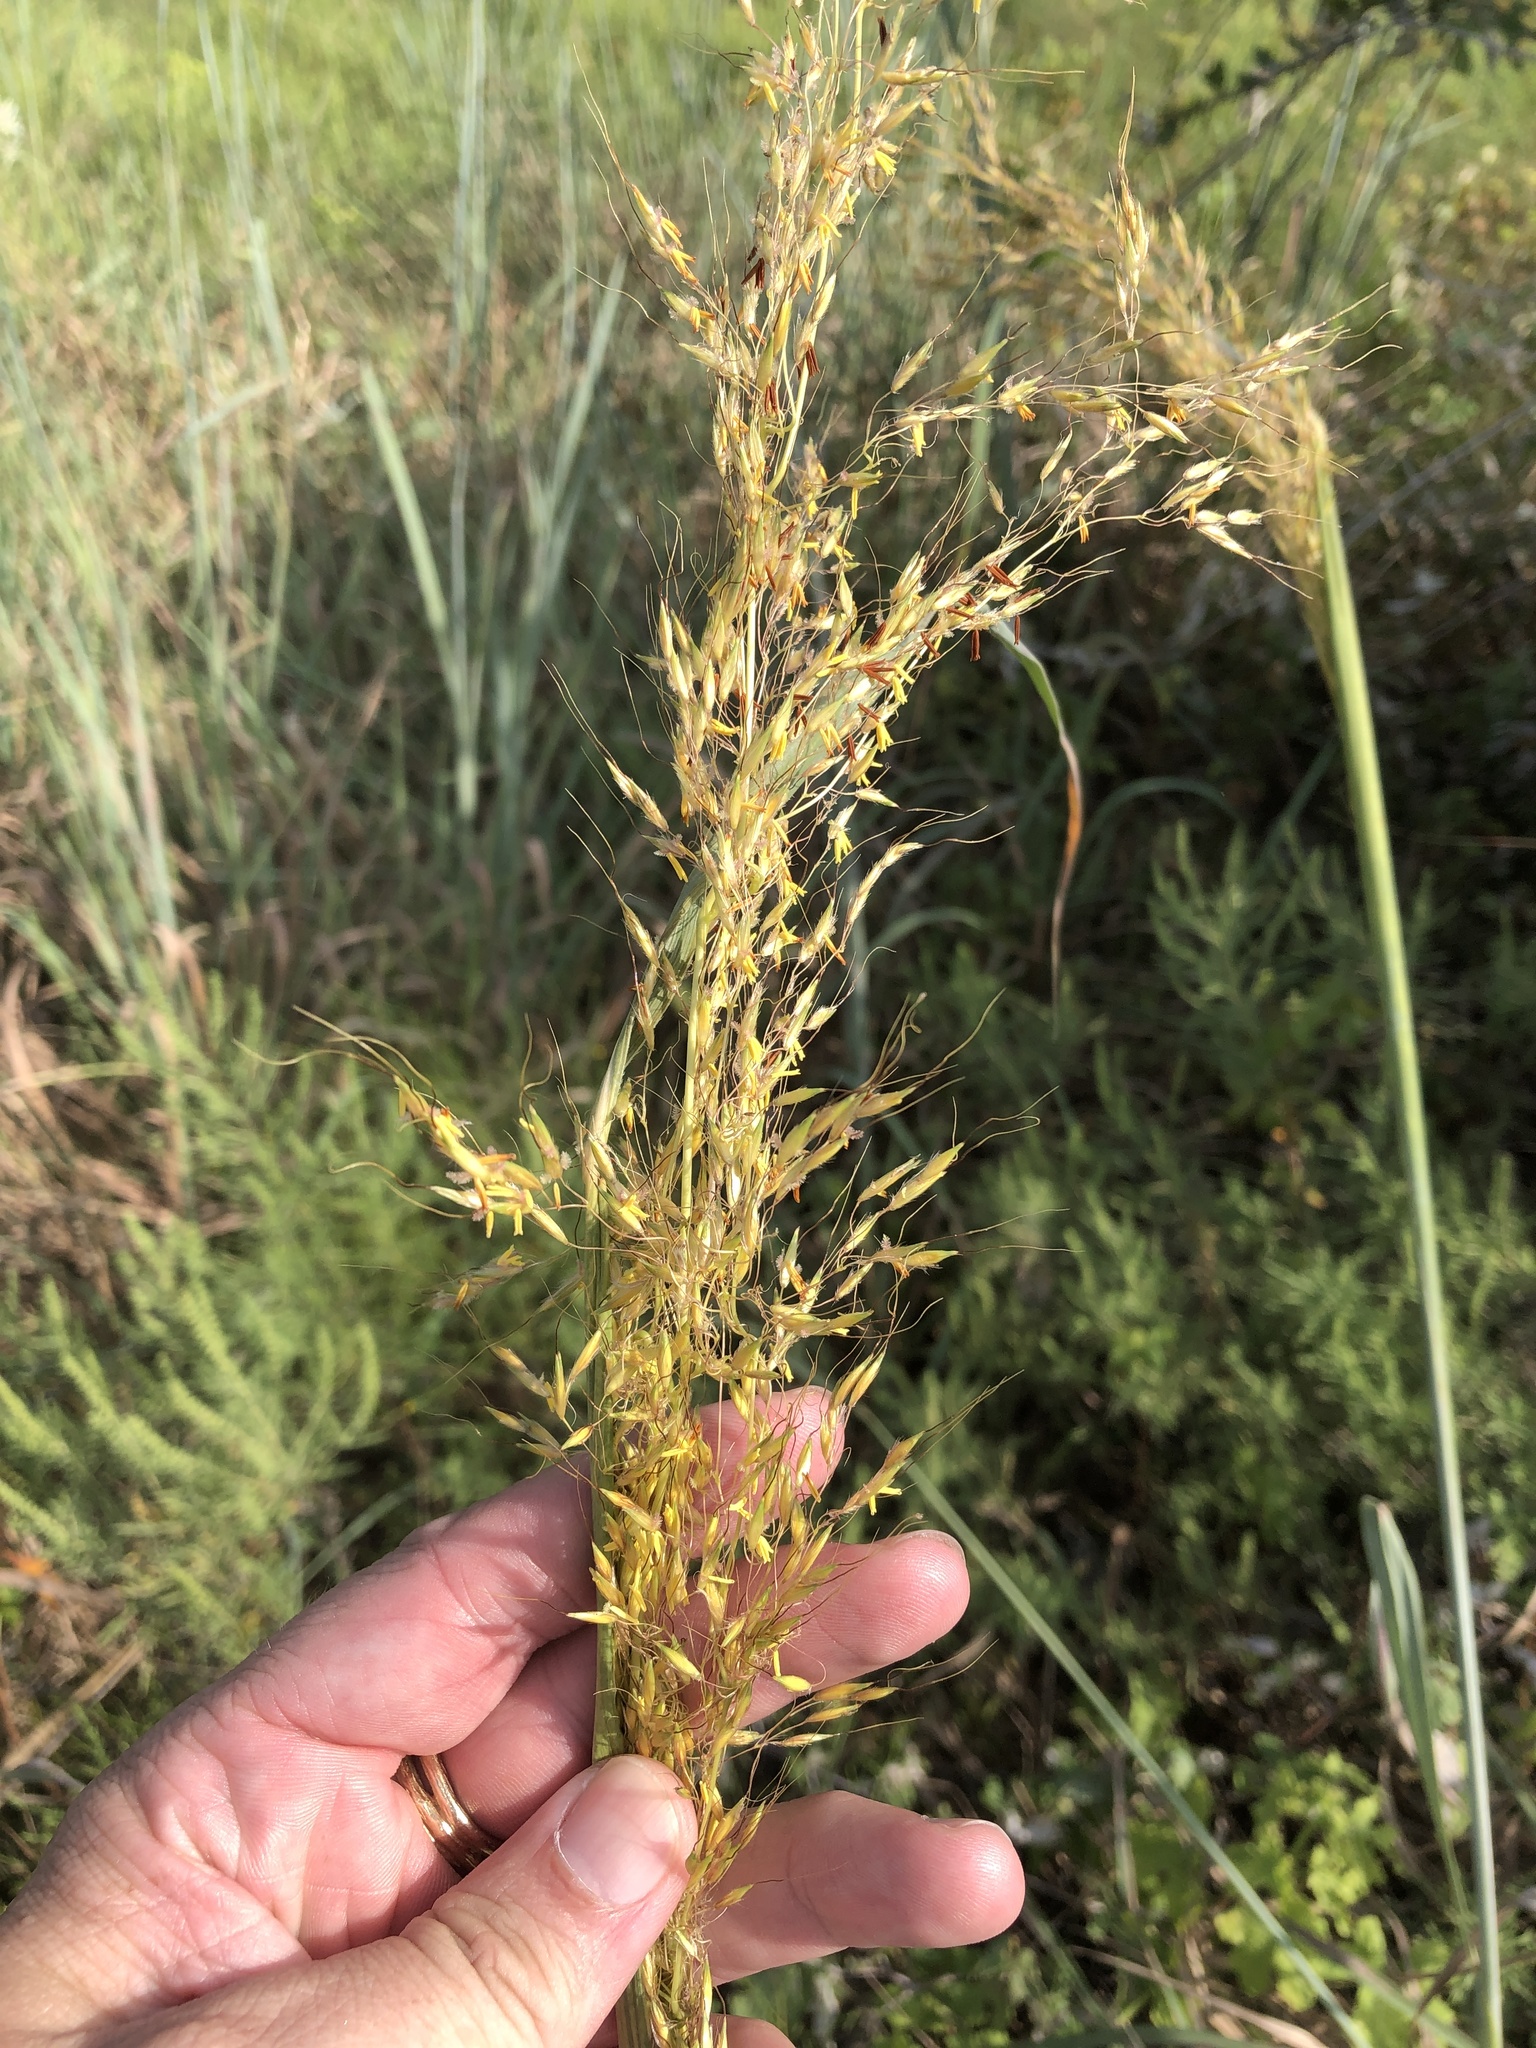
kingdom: Plantae
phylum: Tracheophyta
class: Liliopsida
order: Poales
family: Poaceae
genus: Sorghastrum
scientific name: Sorghastrum nutans
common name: Indian grass
